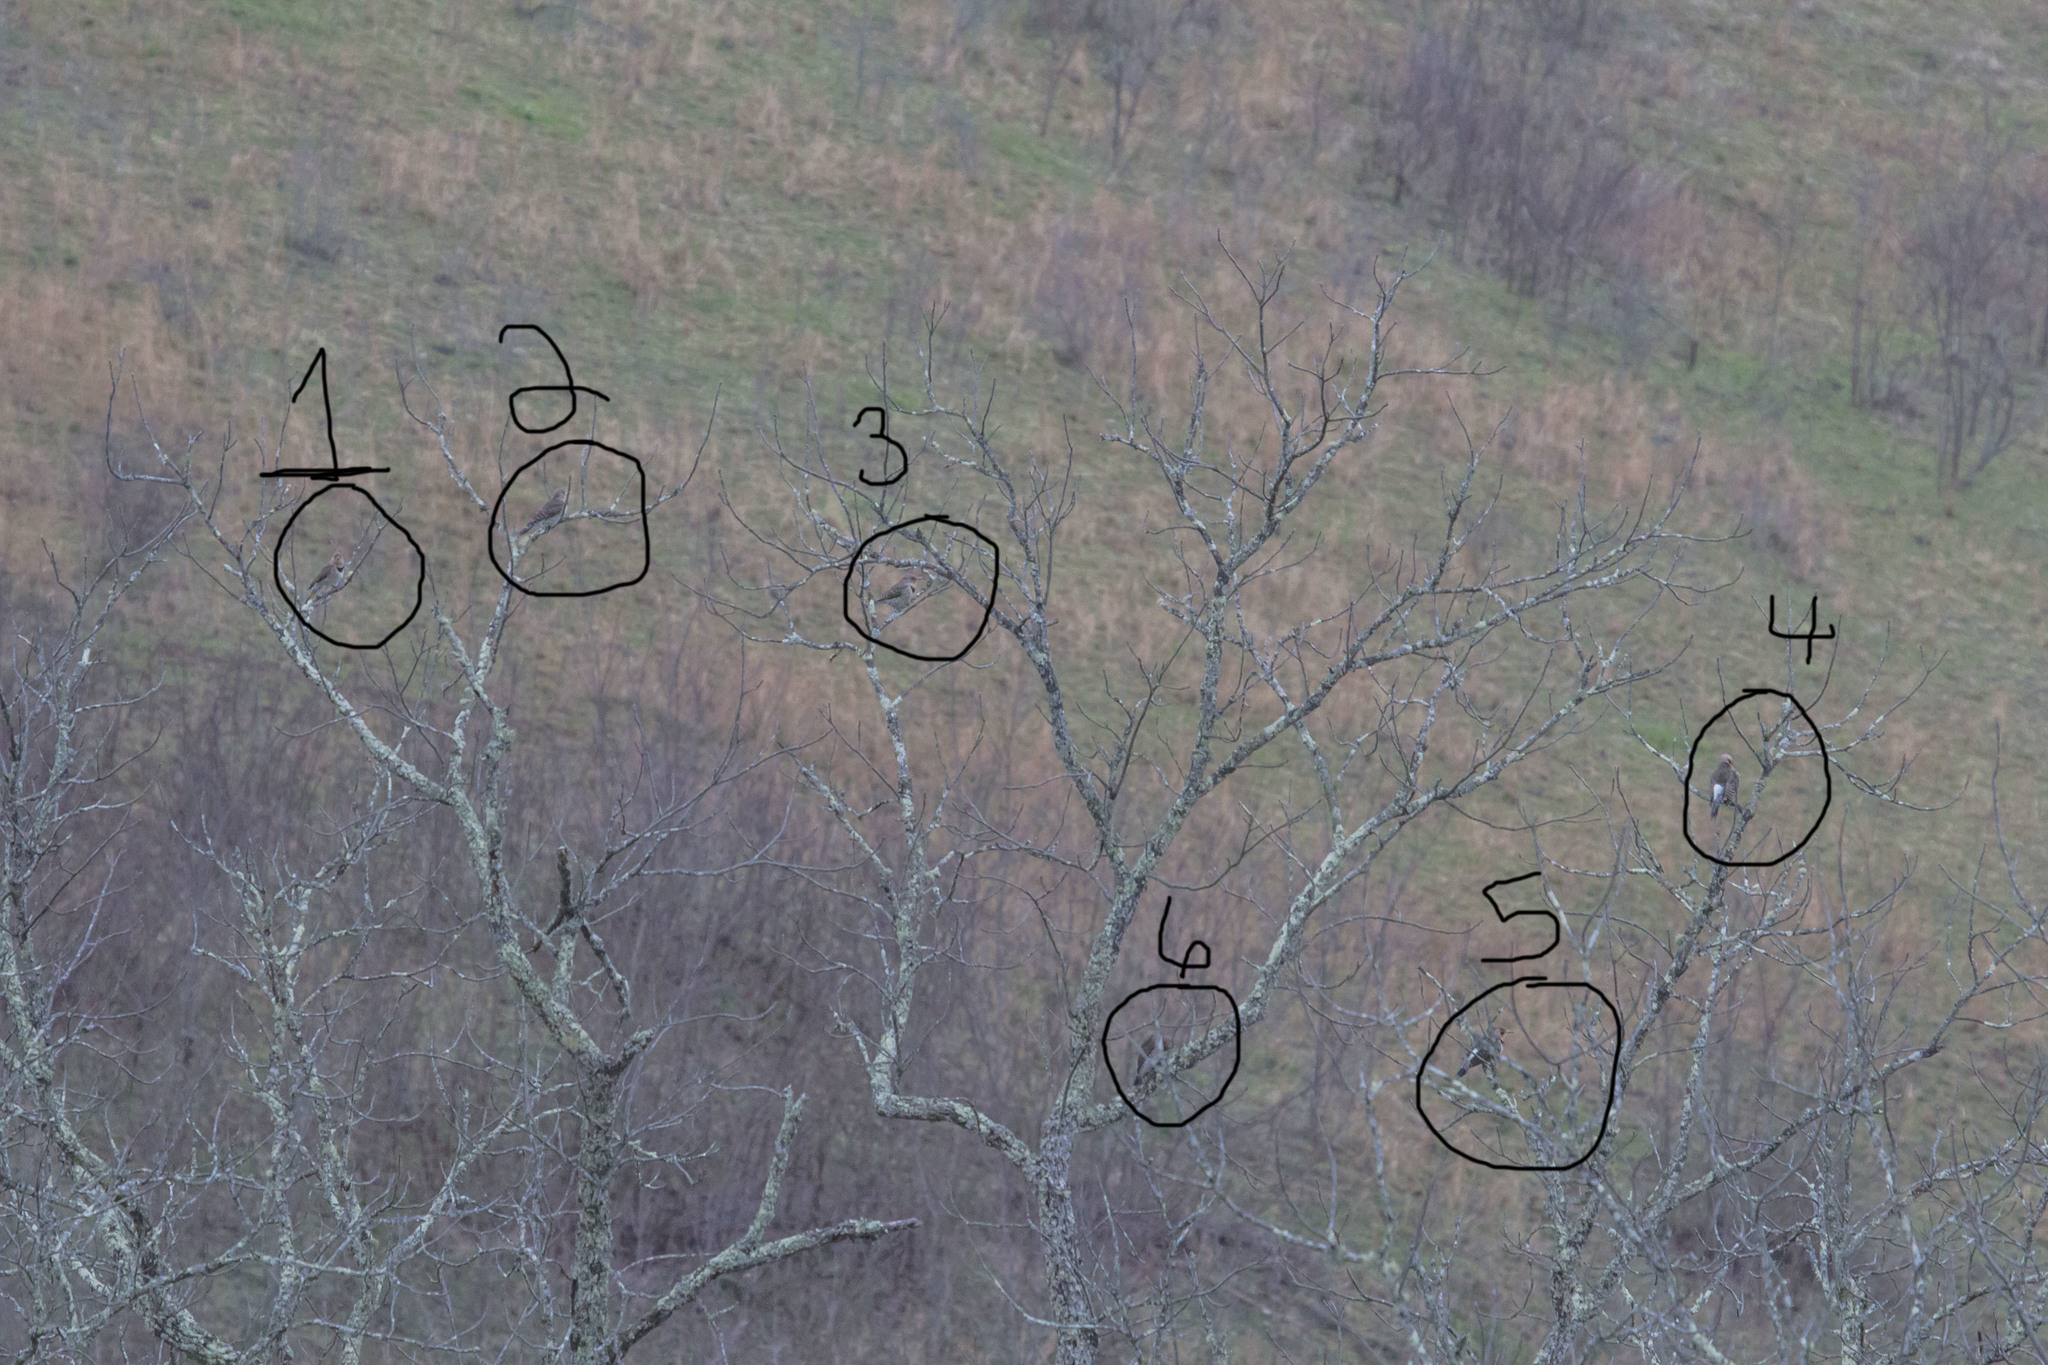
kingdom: Animalia
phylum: Chordata
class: Aves
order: Piciformes
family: Picidae
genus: Colaptes
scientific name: Colaptes auratus
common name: Northern flicker
